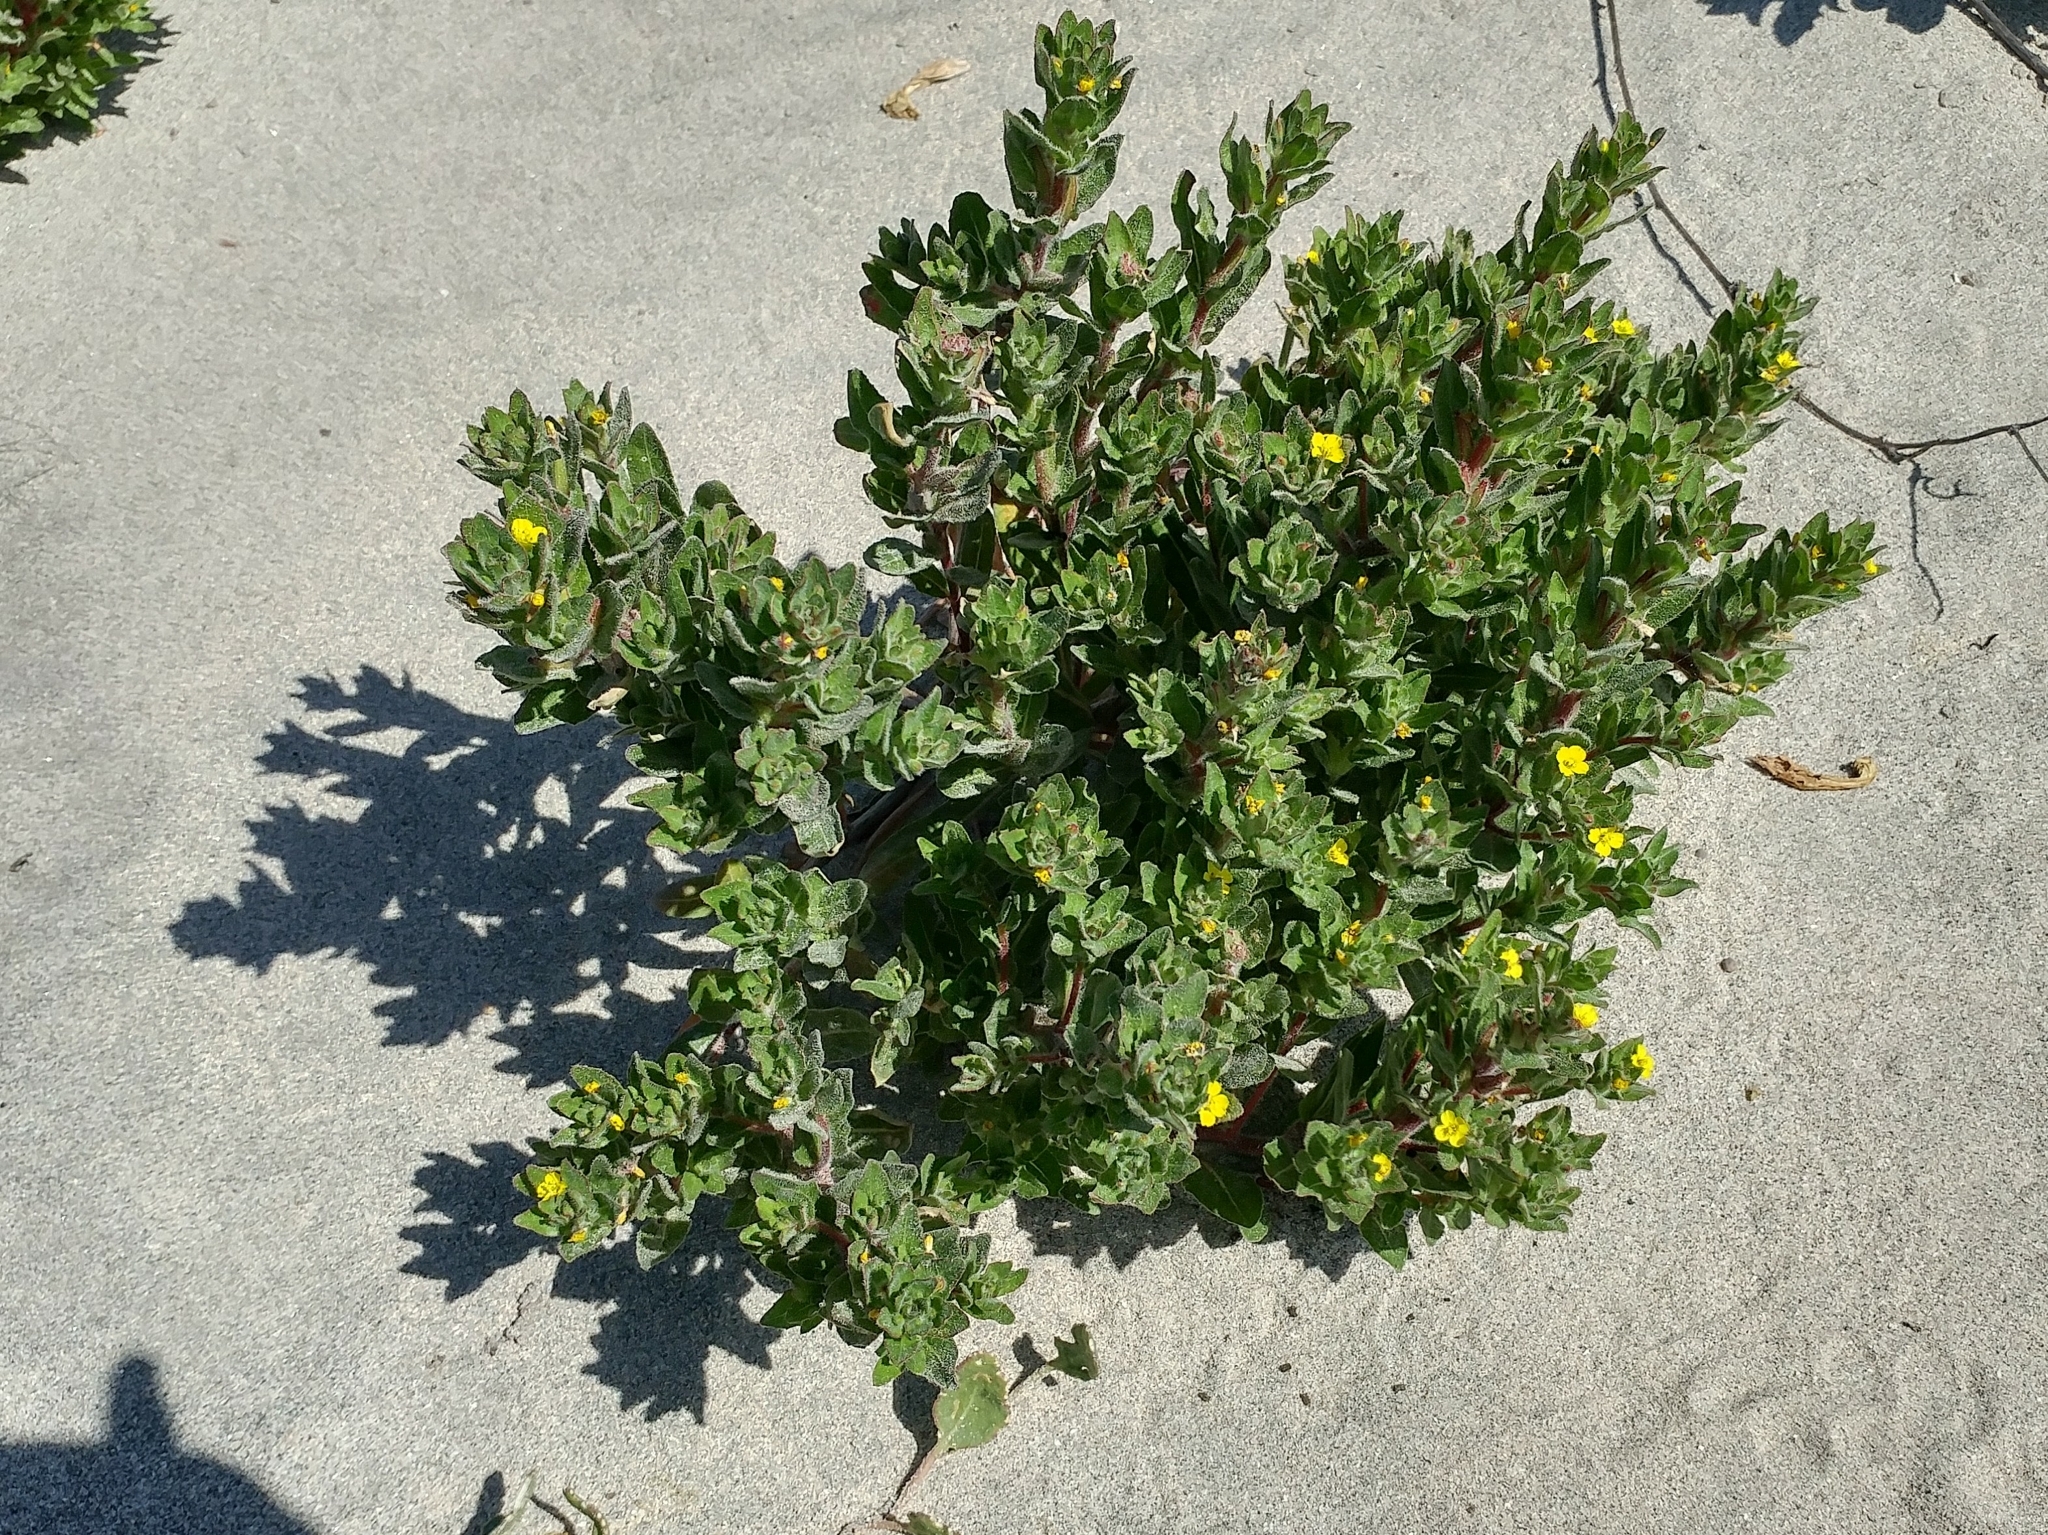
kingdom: Plantae
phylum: Tracheophyta
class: Magnoliopsida
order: Myrtales
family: Onagraceae
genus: Camissoniopsis
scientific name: Camissoniopsis guadalupensis
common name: Guadalupe suncup
